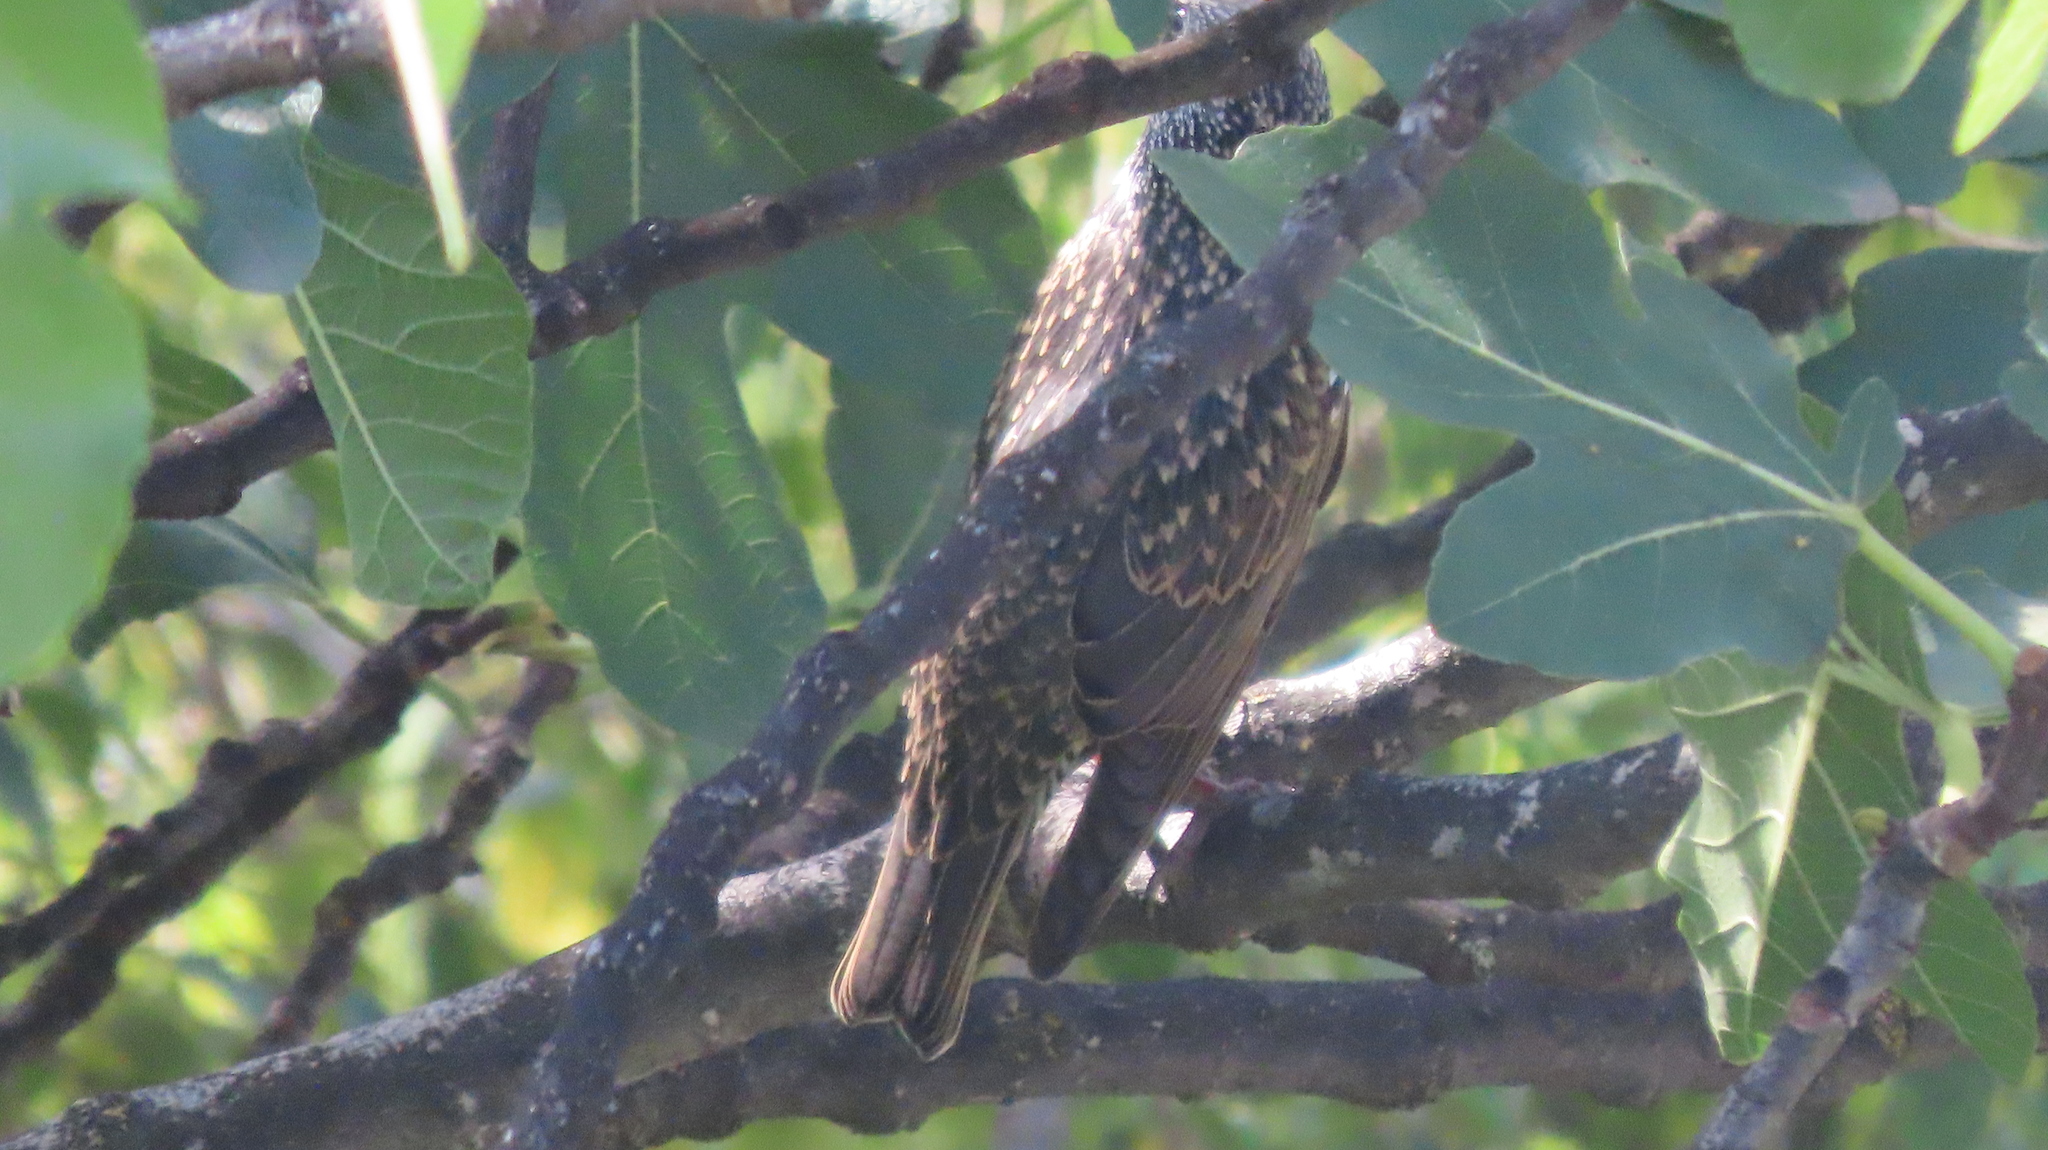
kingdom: Animalia
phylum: Chordata
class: Aves
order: Passeriformes
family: Sturnidae
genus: Sturnus
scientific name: Sturnus vulgaris
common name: Common starling
